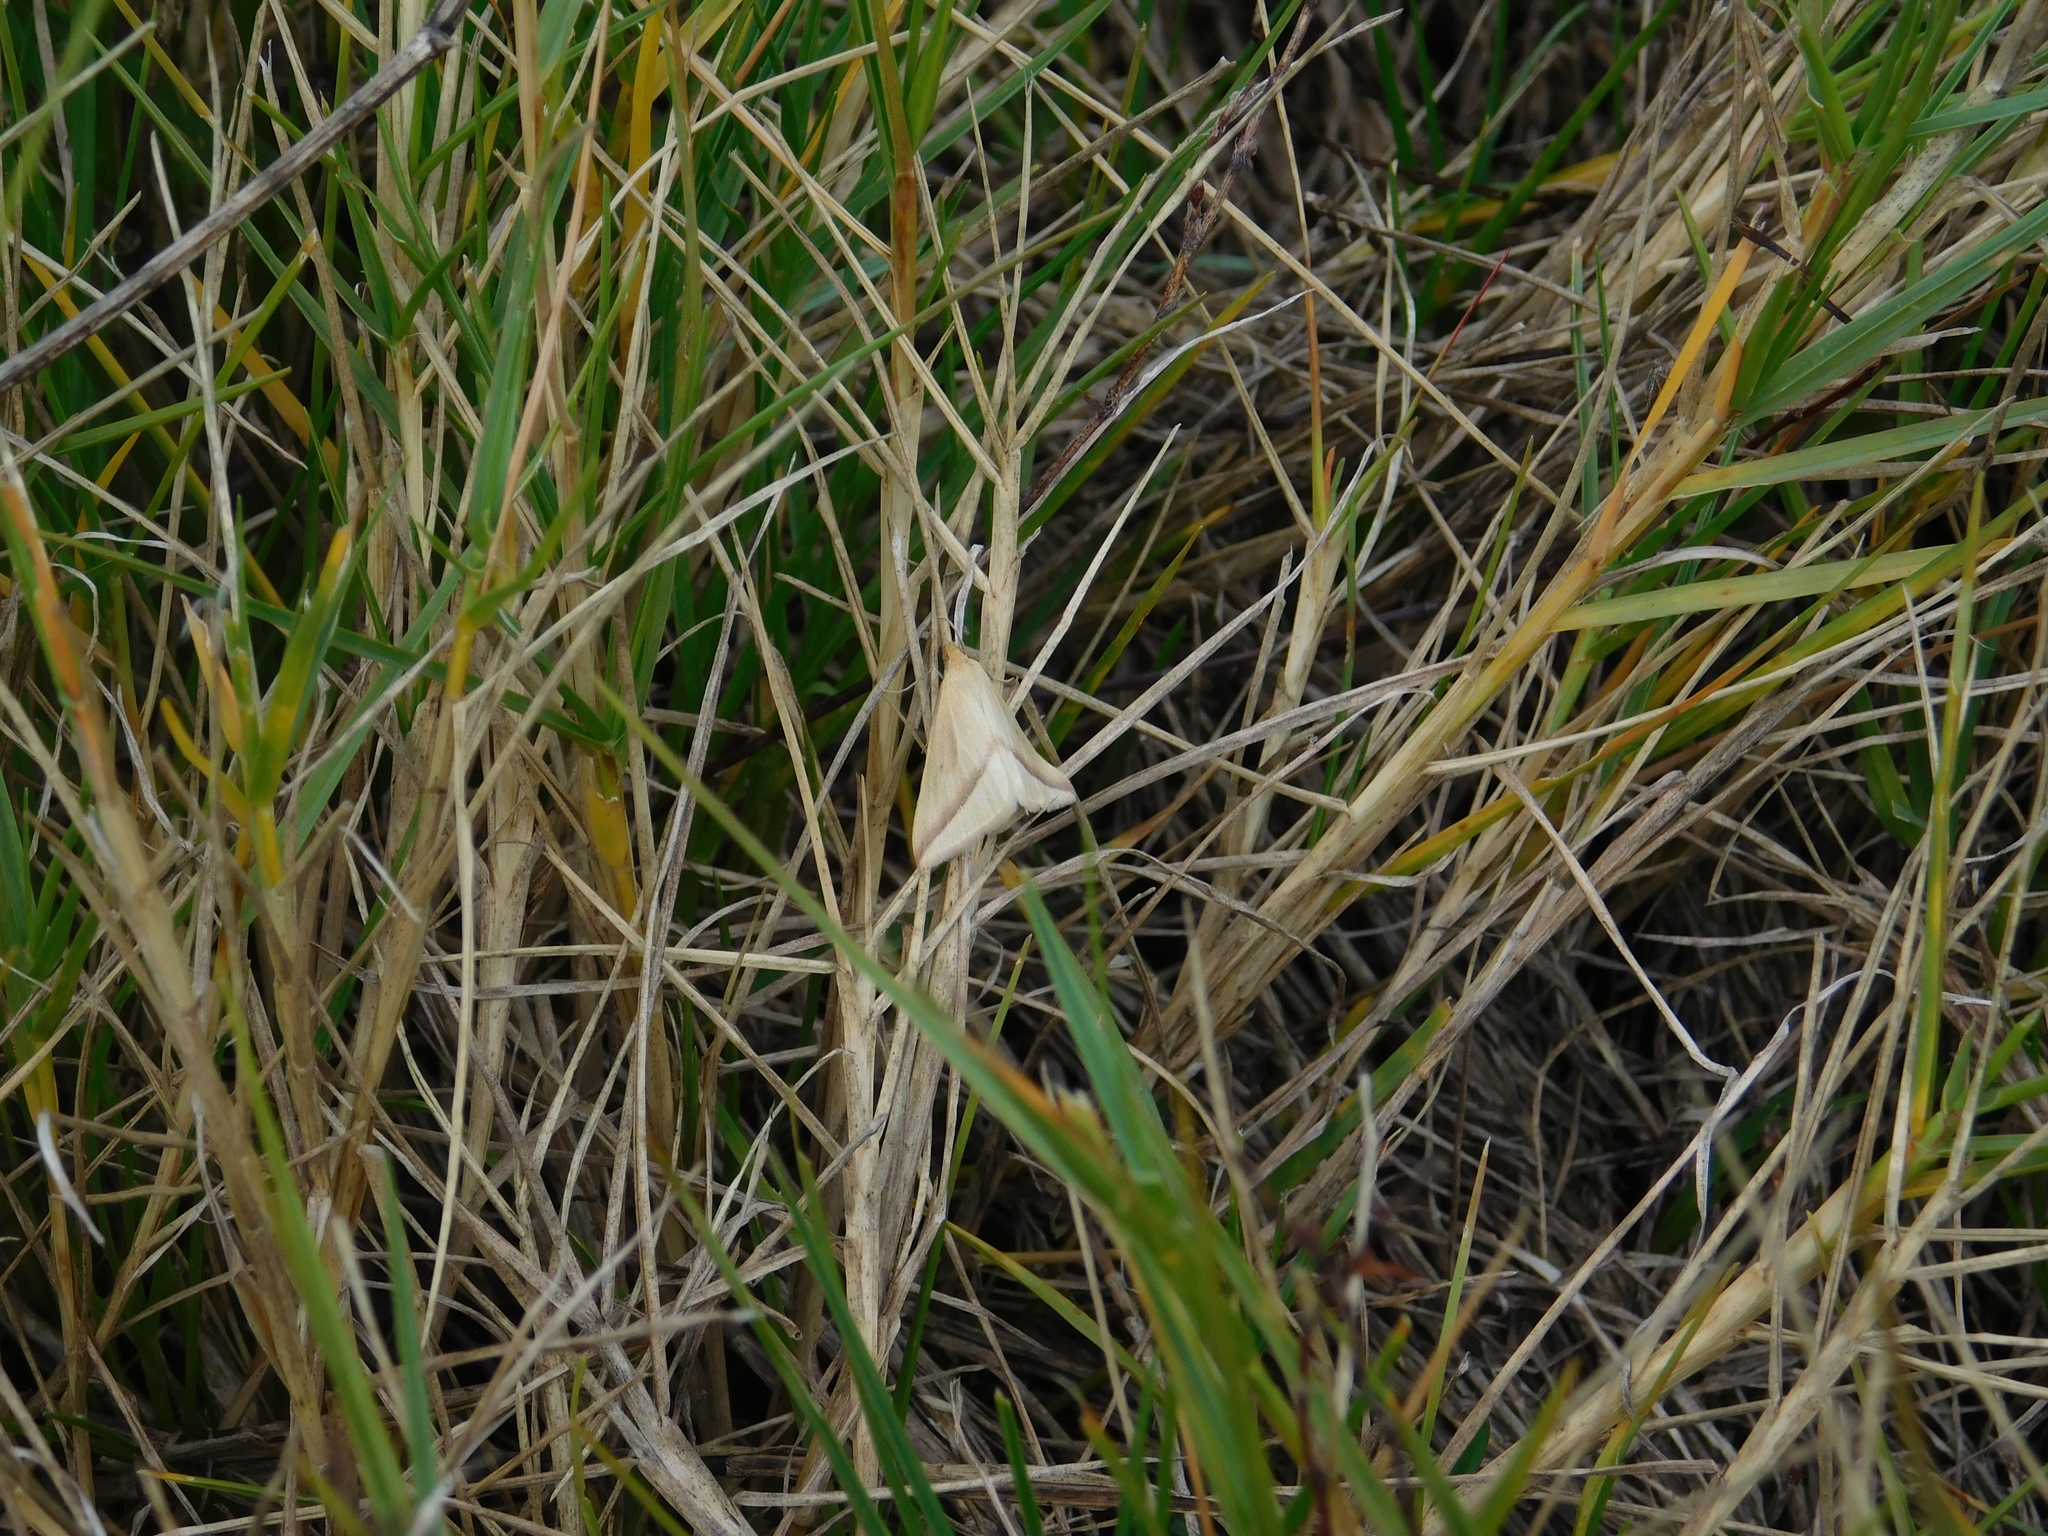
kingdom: Animalia
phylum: Arthropoda
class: Insecta
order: Lepidoptera
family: Geometridae
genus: Rhodometra
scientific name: Rhodometra sacraria
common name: Vestal
